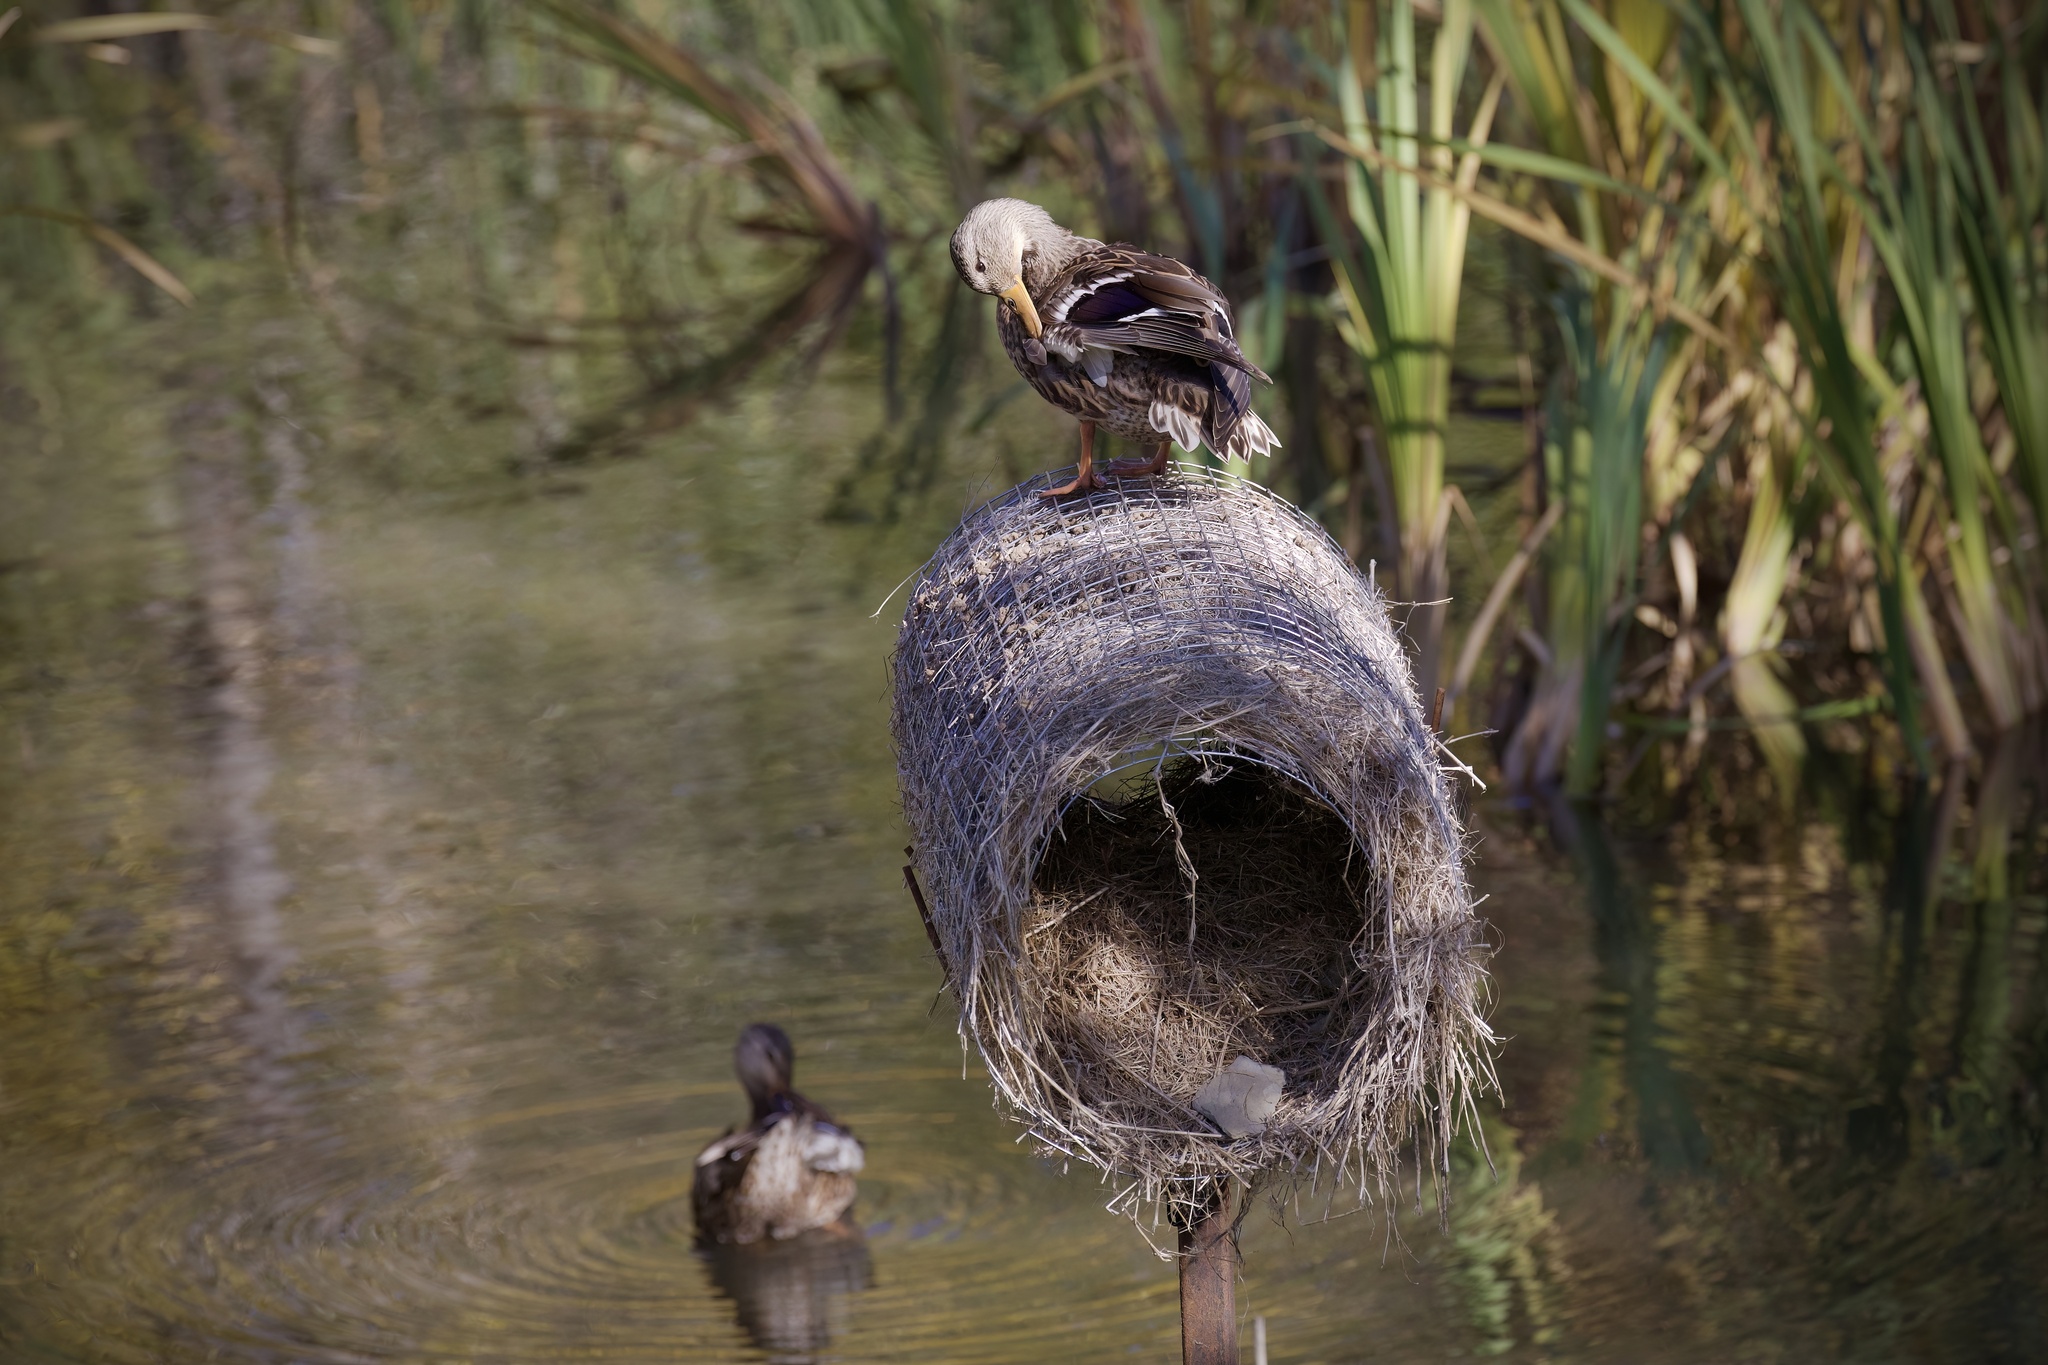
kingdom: Animalia
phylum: Chordata
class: Aves
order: Anseriformes
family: Anatidae
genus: Anas
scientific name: Anas platyrhynchos
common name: Mallard
